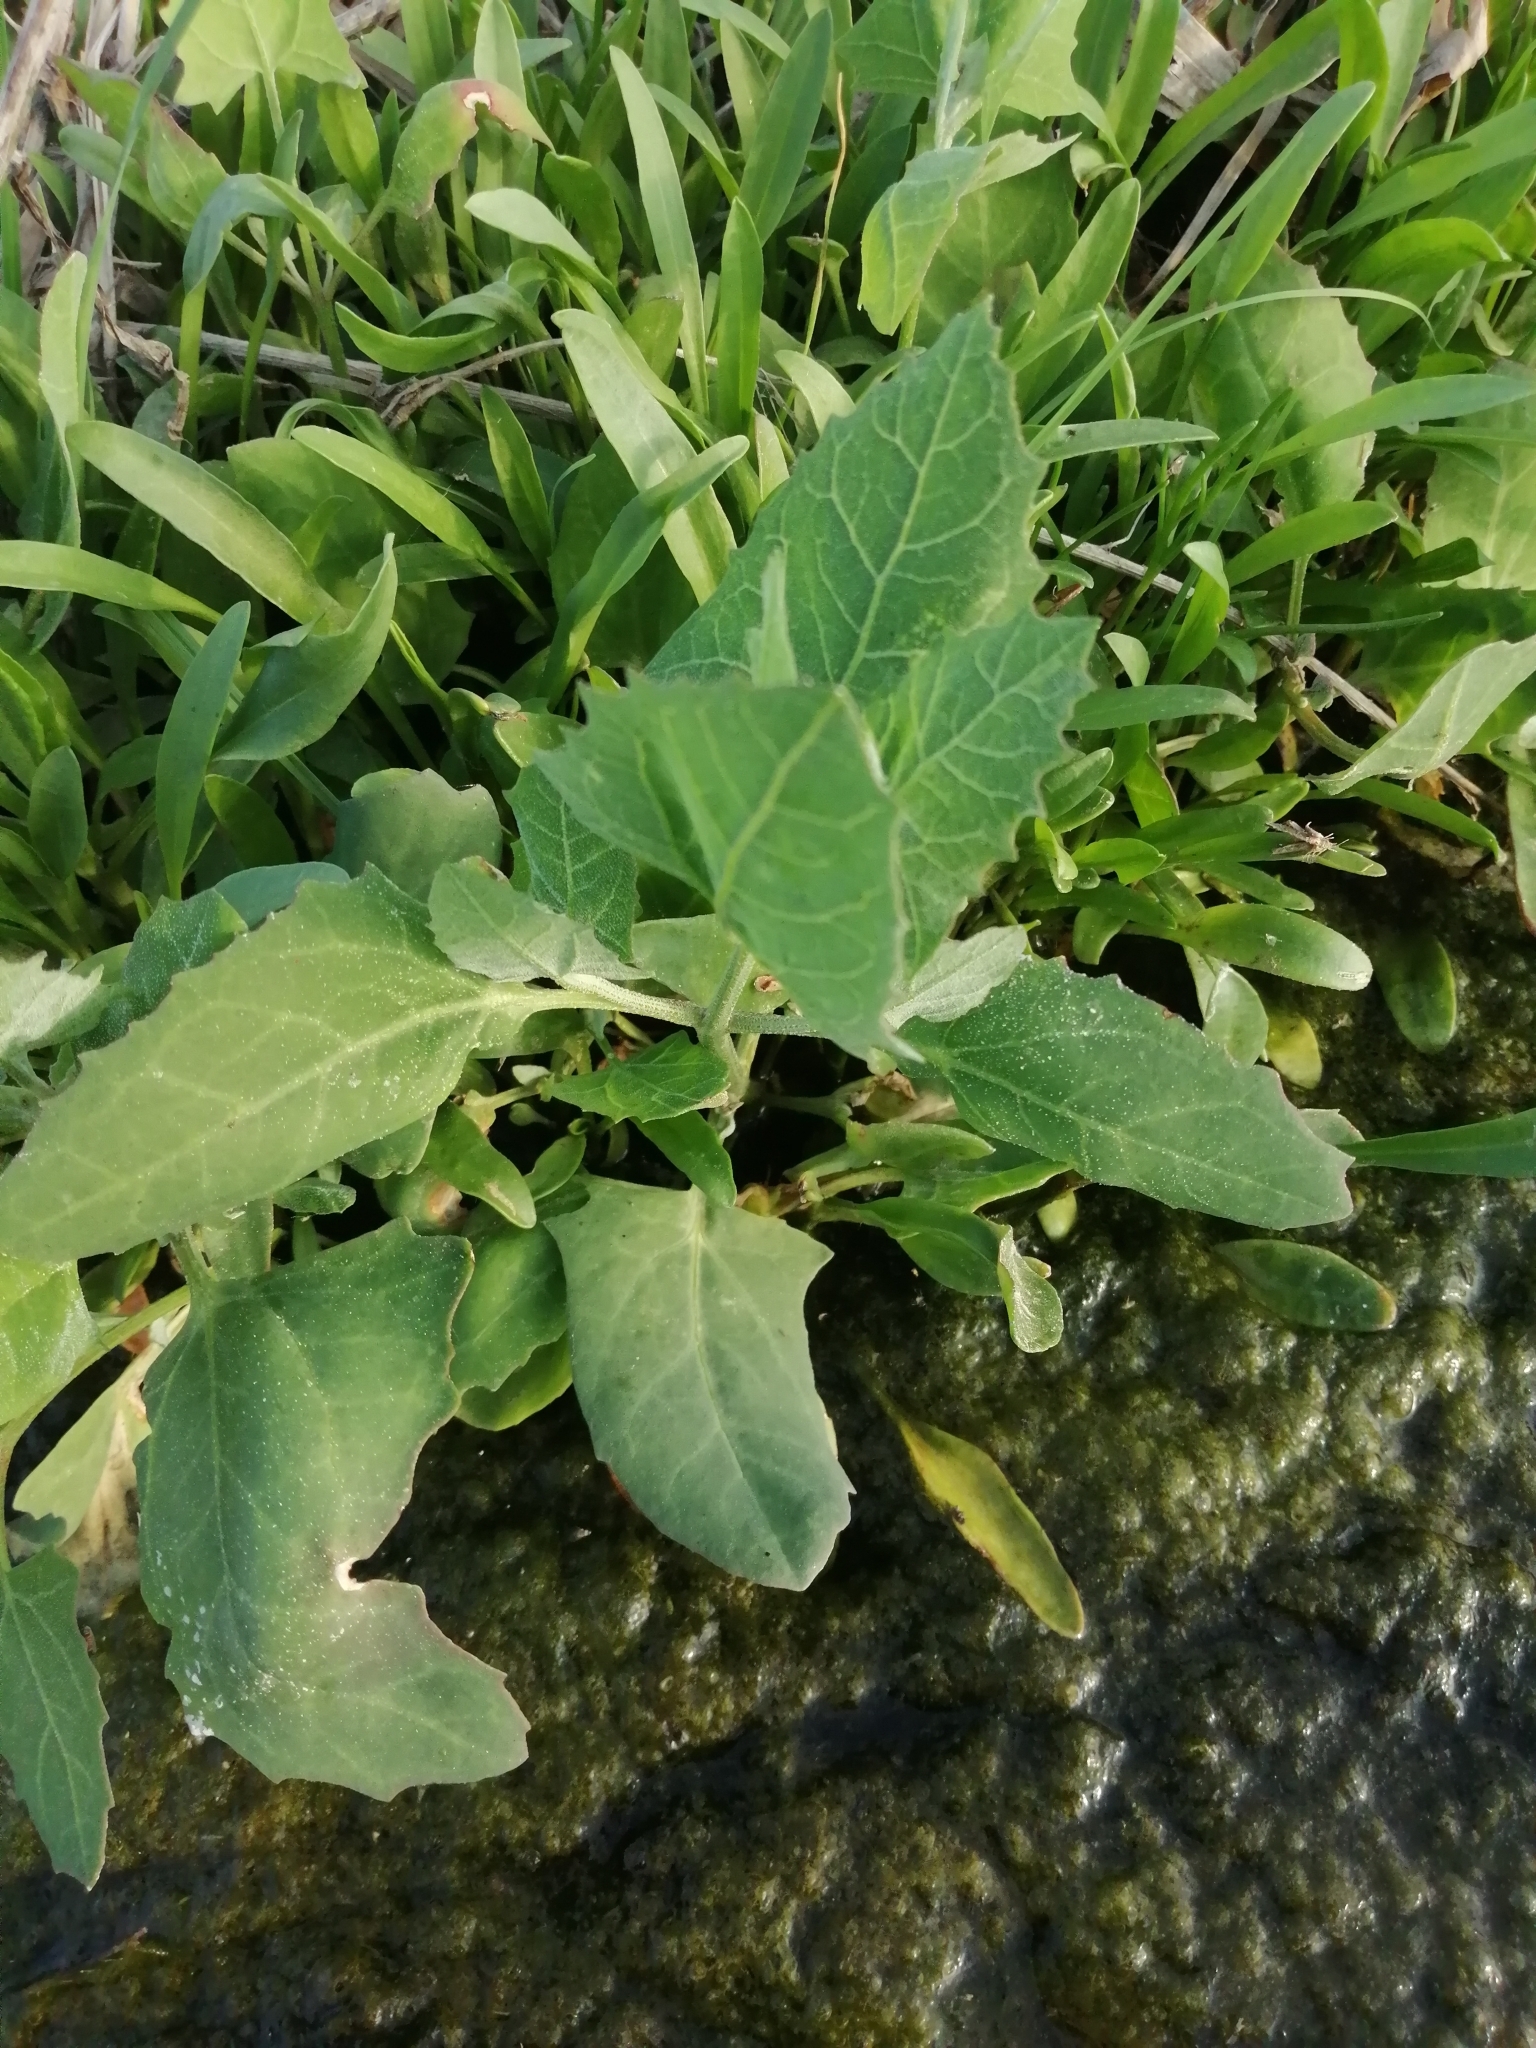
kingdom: Plantae
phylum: Tracheophyta
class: Magnoliopsida
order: Caryophyllales
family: Amaranthaceae
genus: Atriplex
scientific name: Atriplex prostrata
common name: Spear-leaved orache
